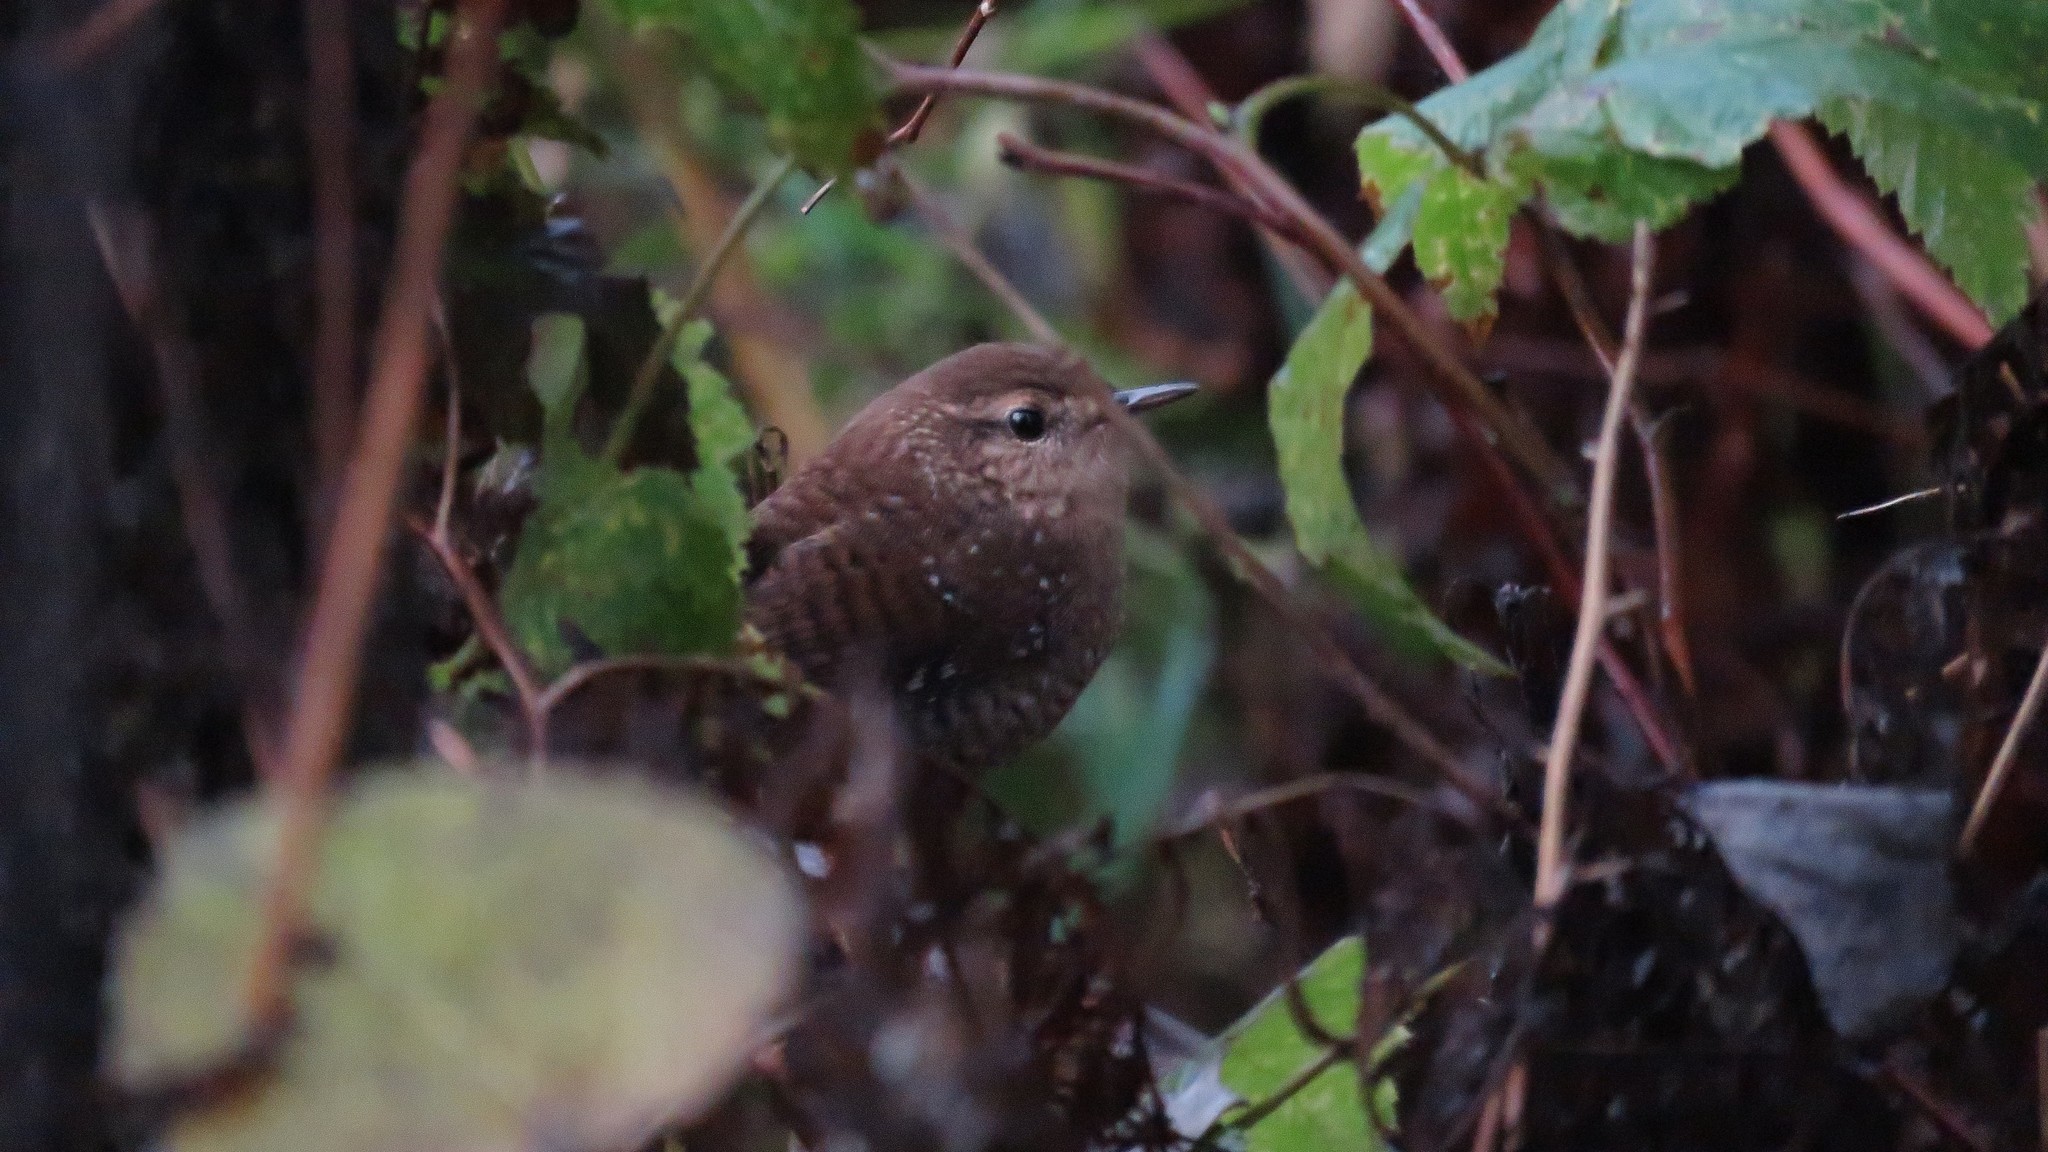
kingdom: Animalia
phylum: Chordata
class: Aves
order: Passeriformes
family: Troglodytidae
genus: Troglodytes
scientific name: Troglodytes hiemalis
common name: Winter wren
